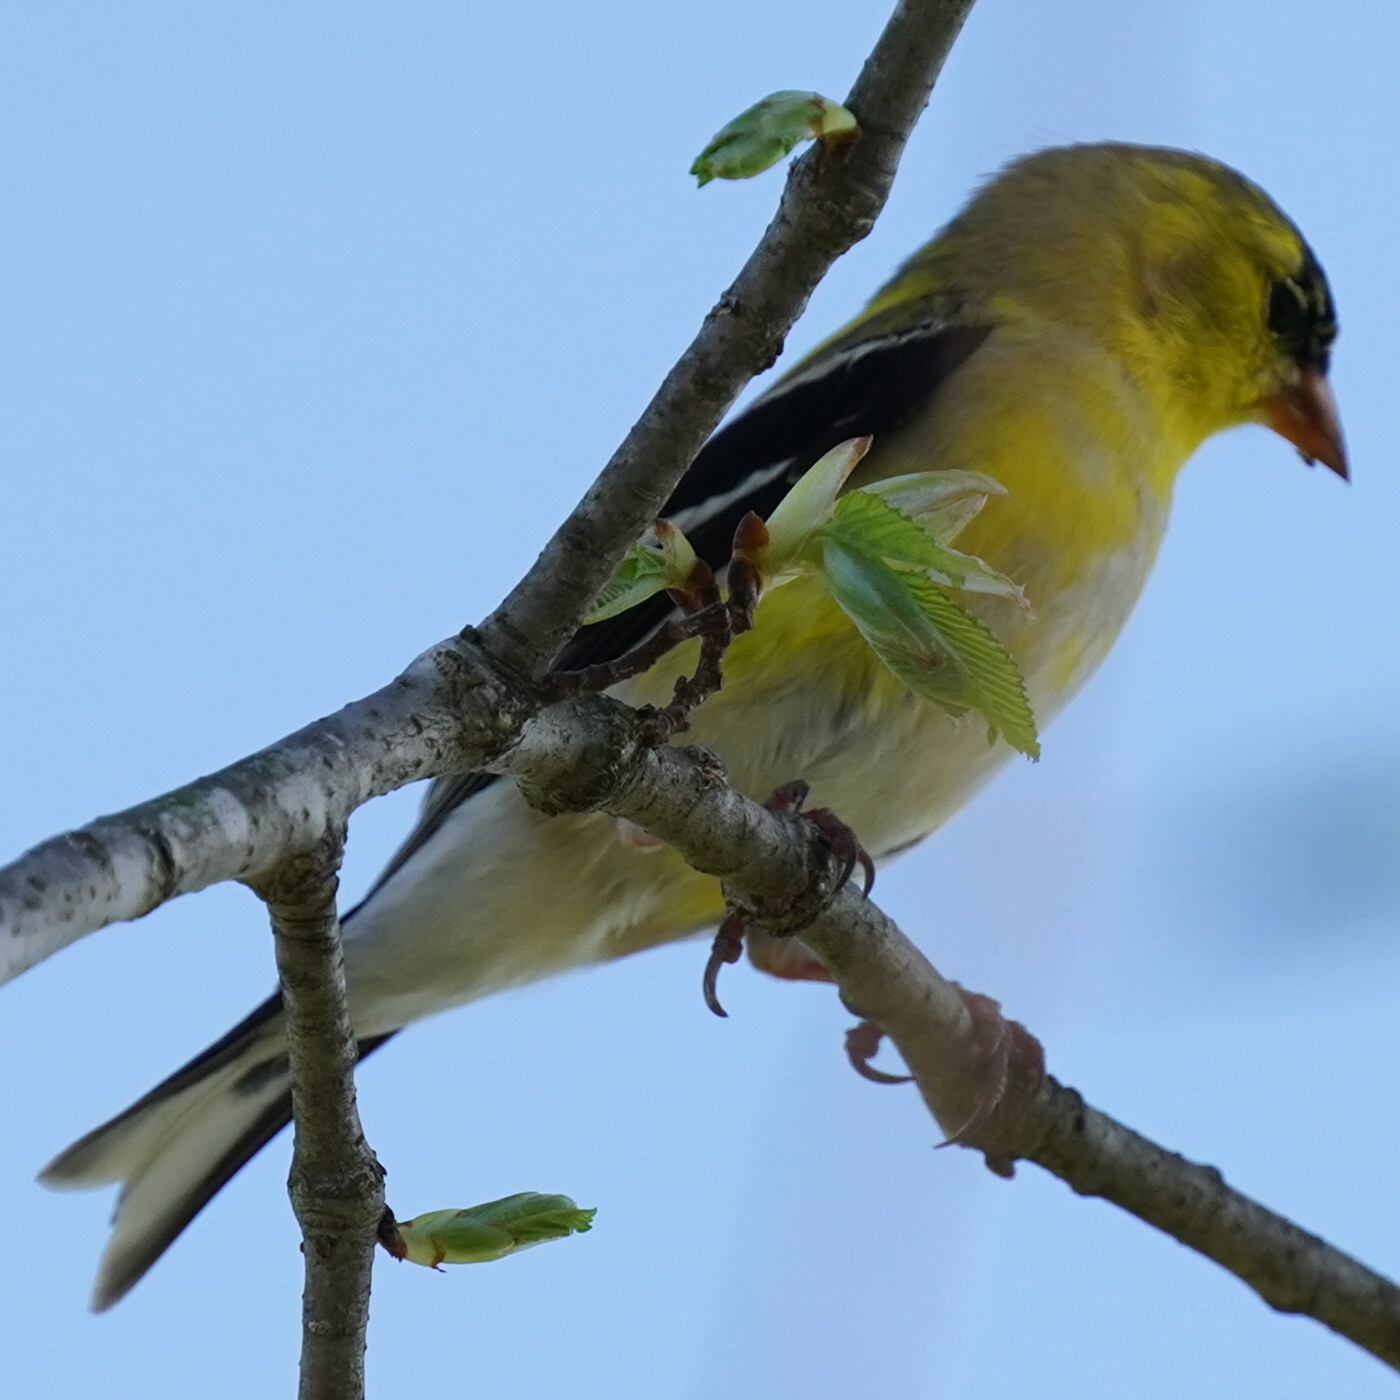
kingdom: Animalia
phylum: Chordata
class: Aves
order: Passeriformes
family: Fringillidae
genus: Spinus
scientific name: Spinus tristis
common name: American goldfinch
